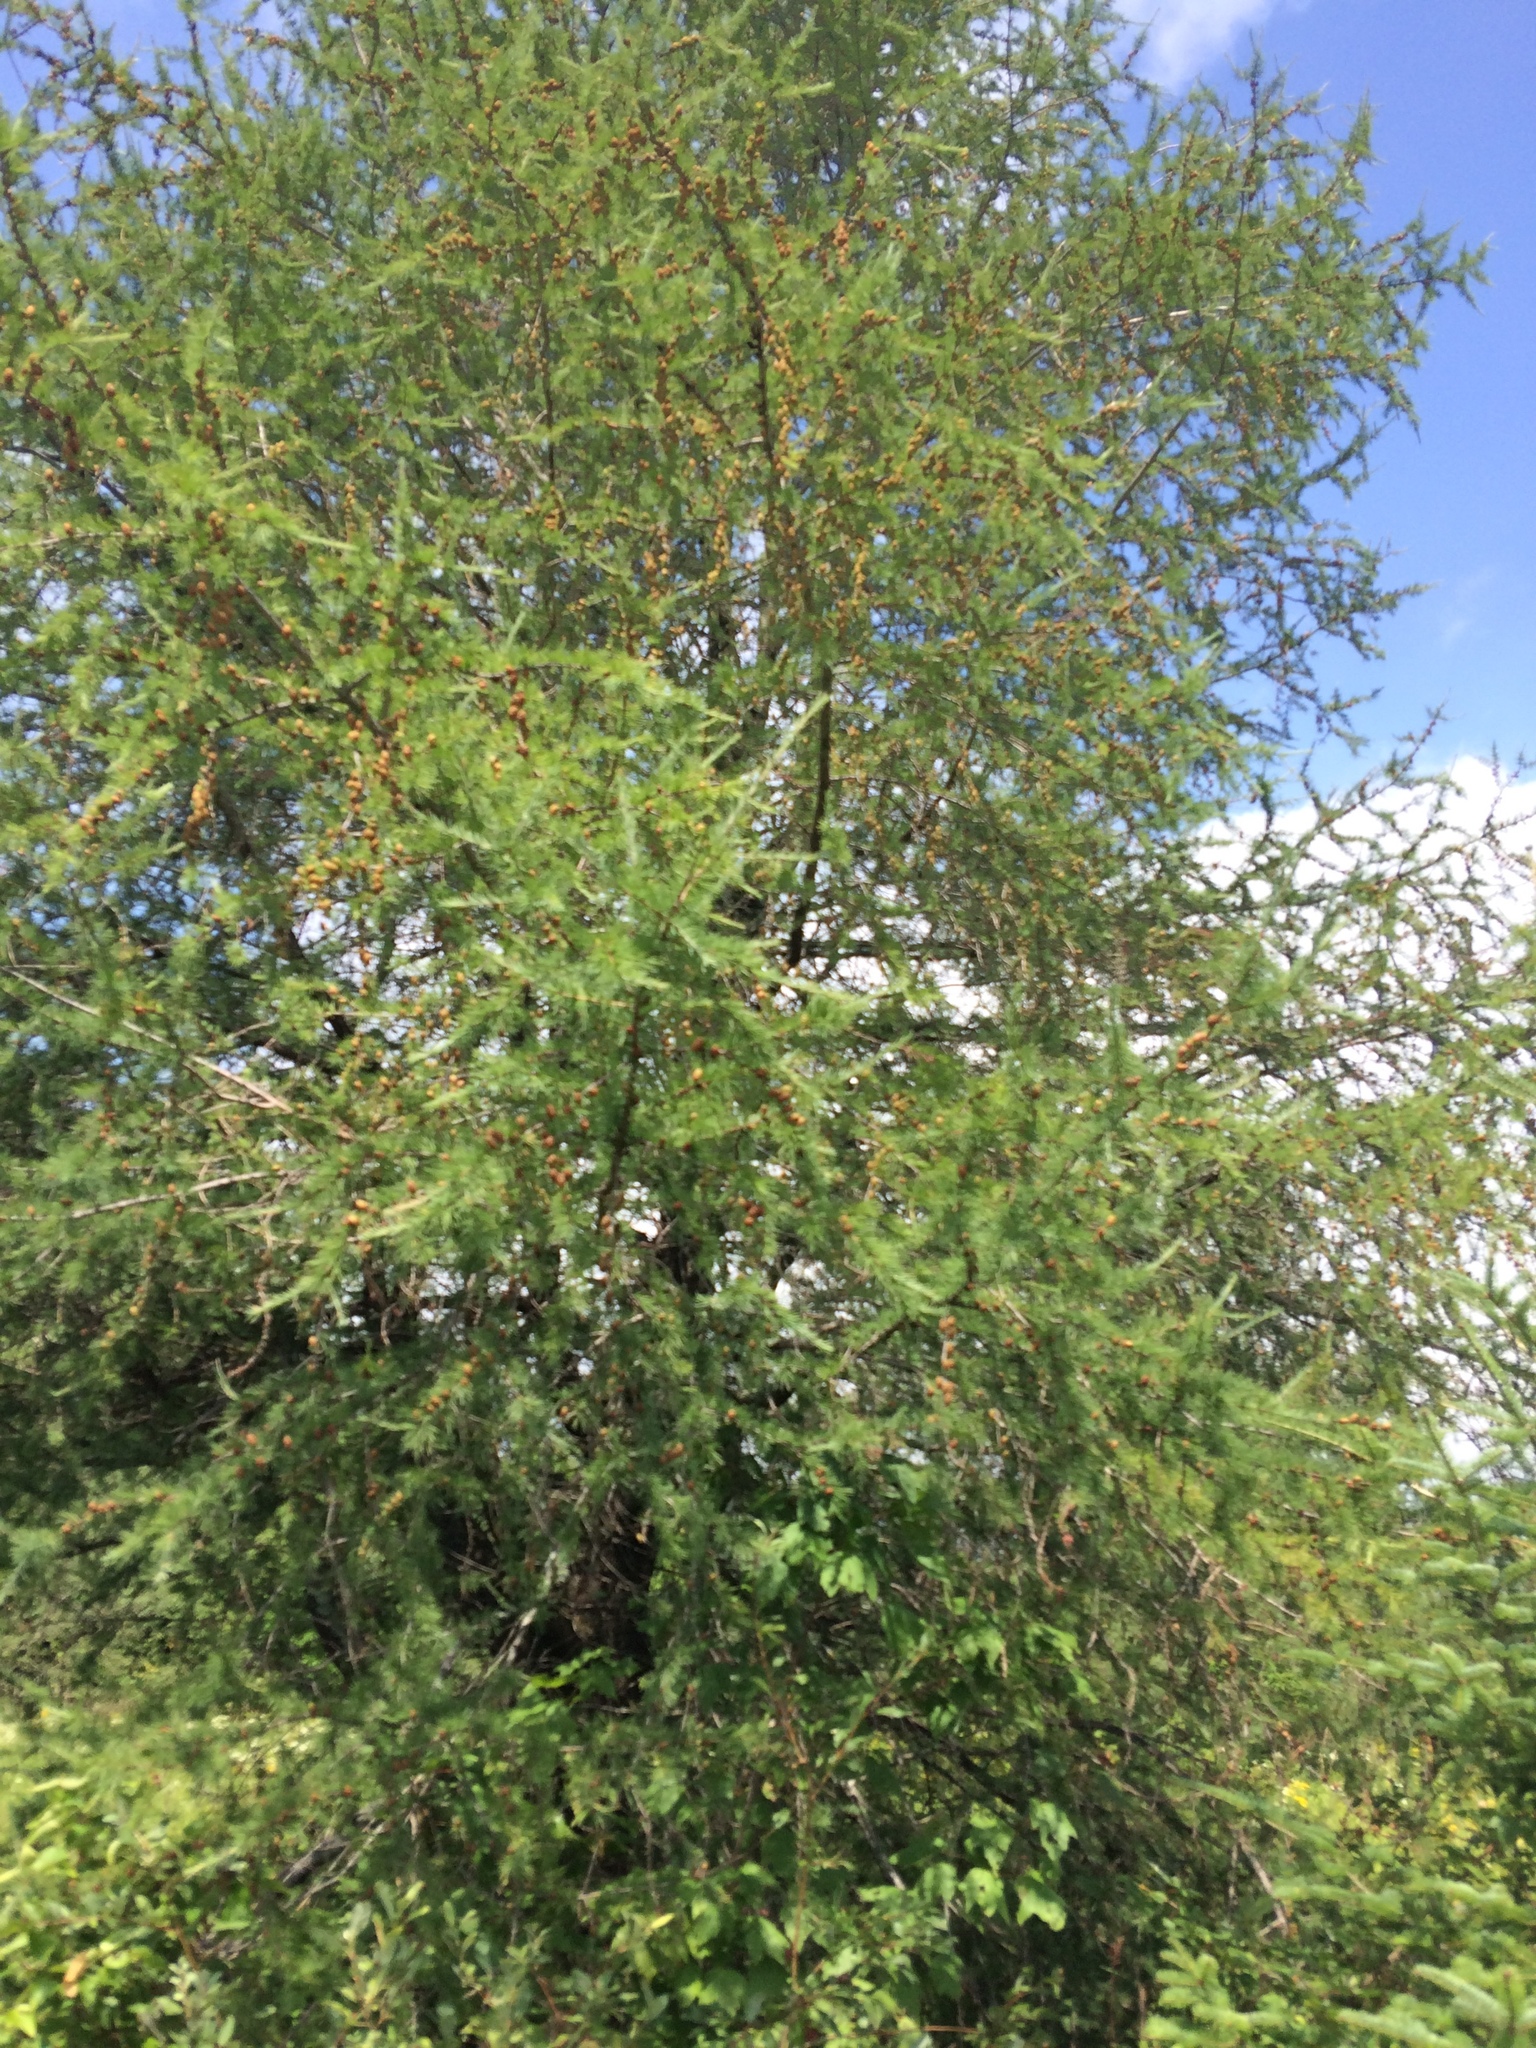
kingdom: Plantae
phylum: Tracheophyta
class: Pinopsida
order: Pinales
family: Pinaceae
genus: Larix
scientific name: Larix laricina
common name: American larch
